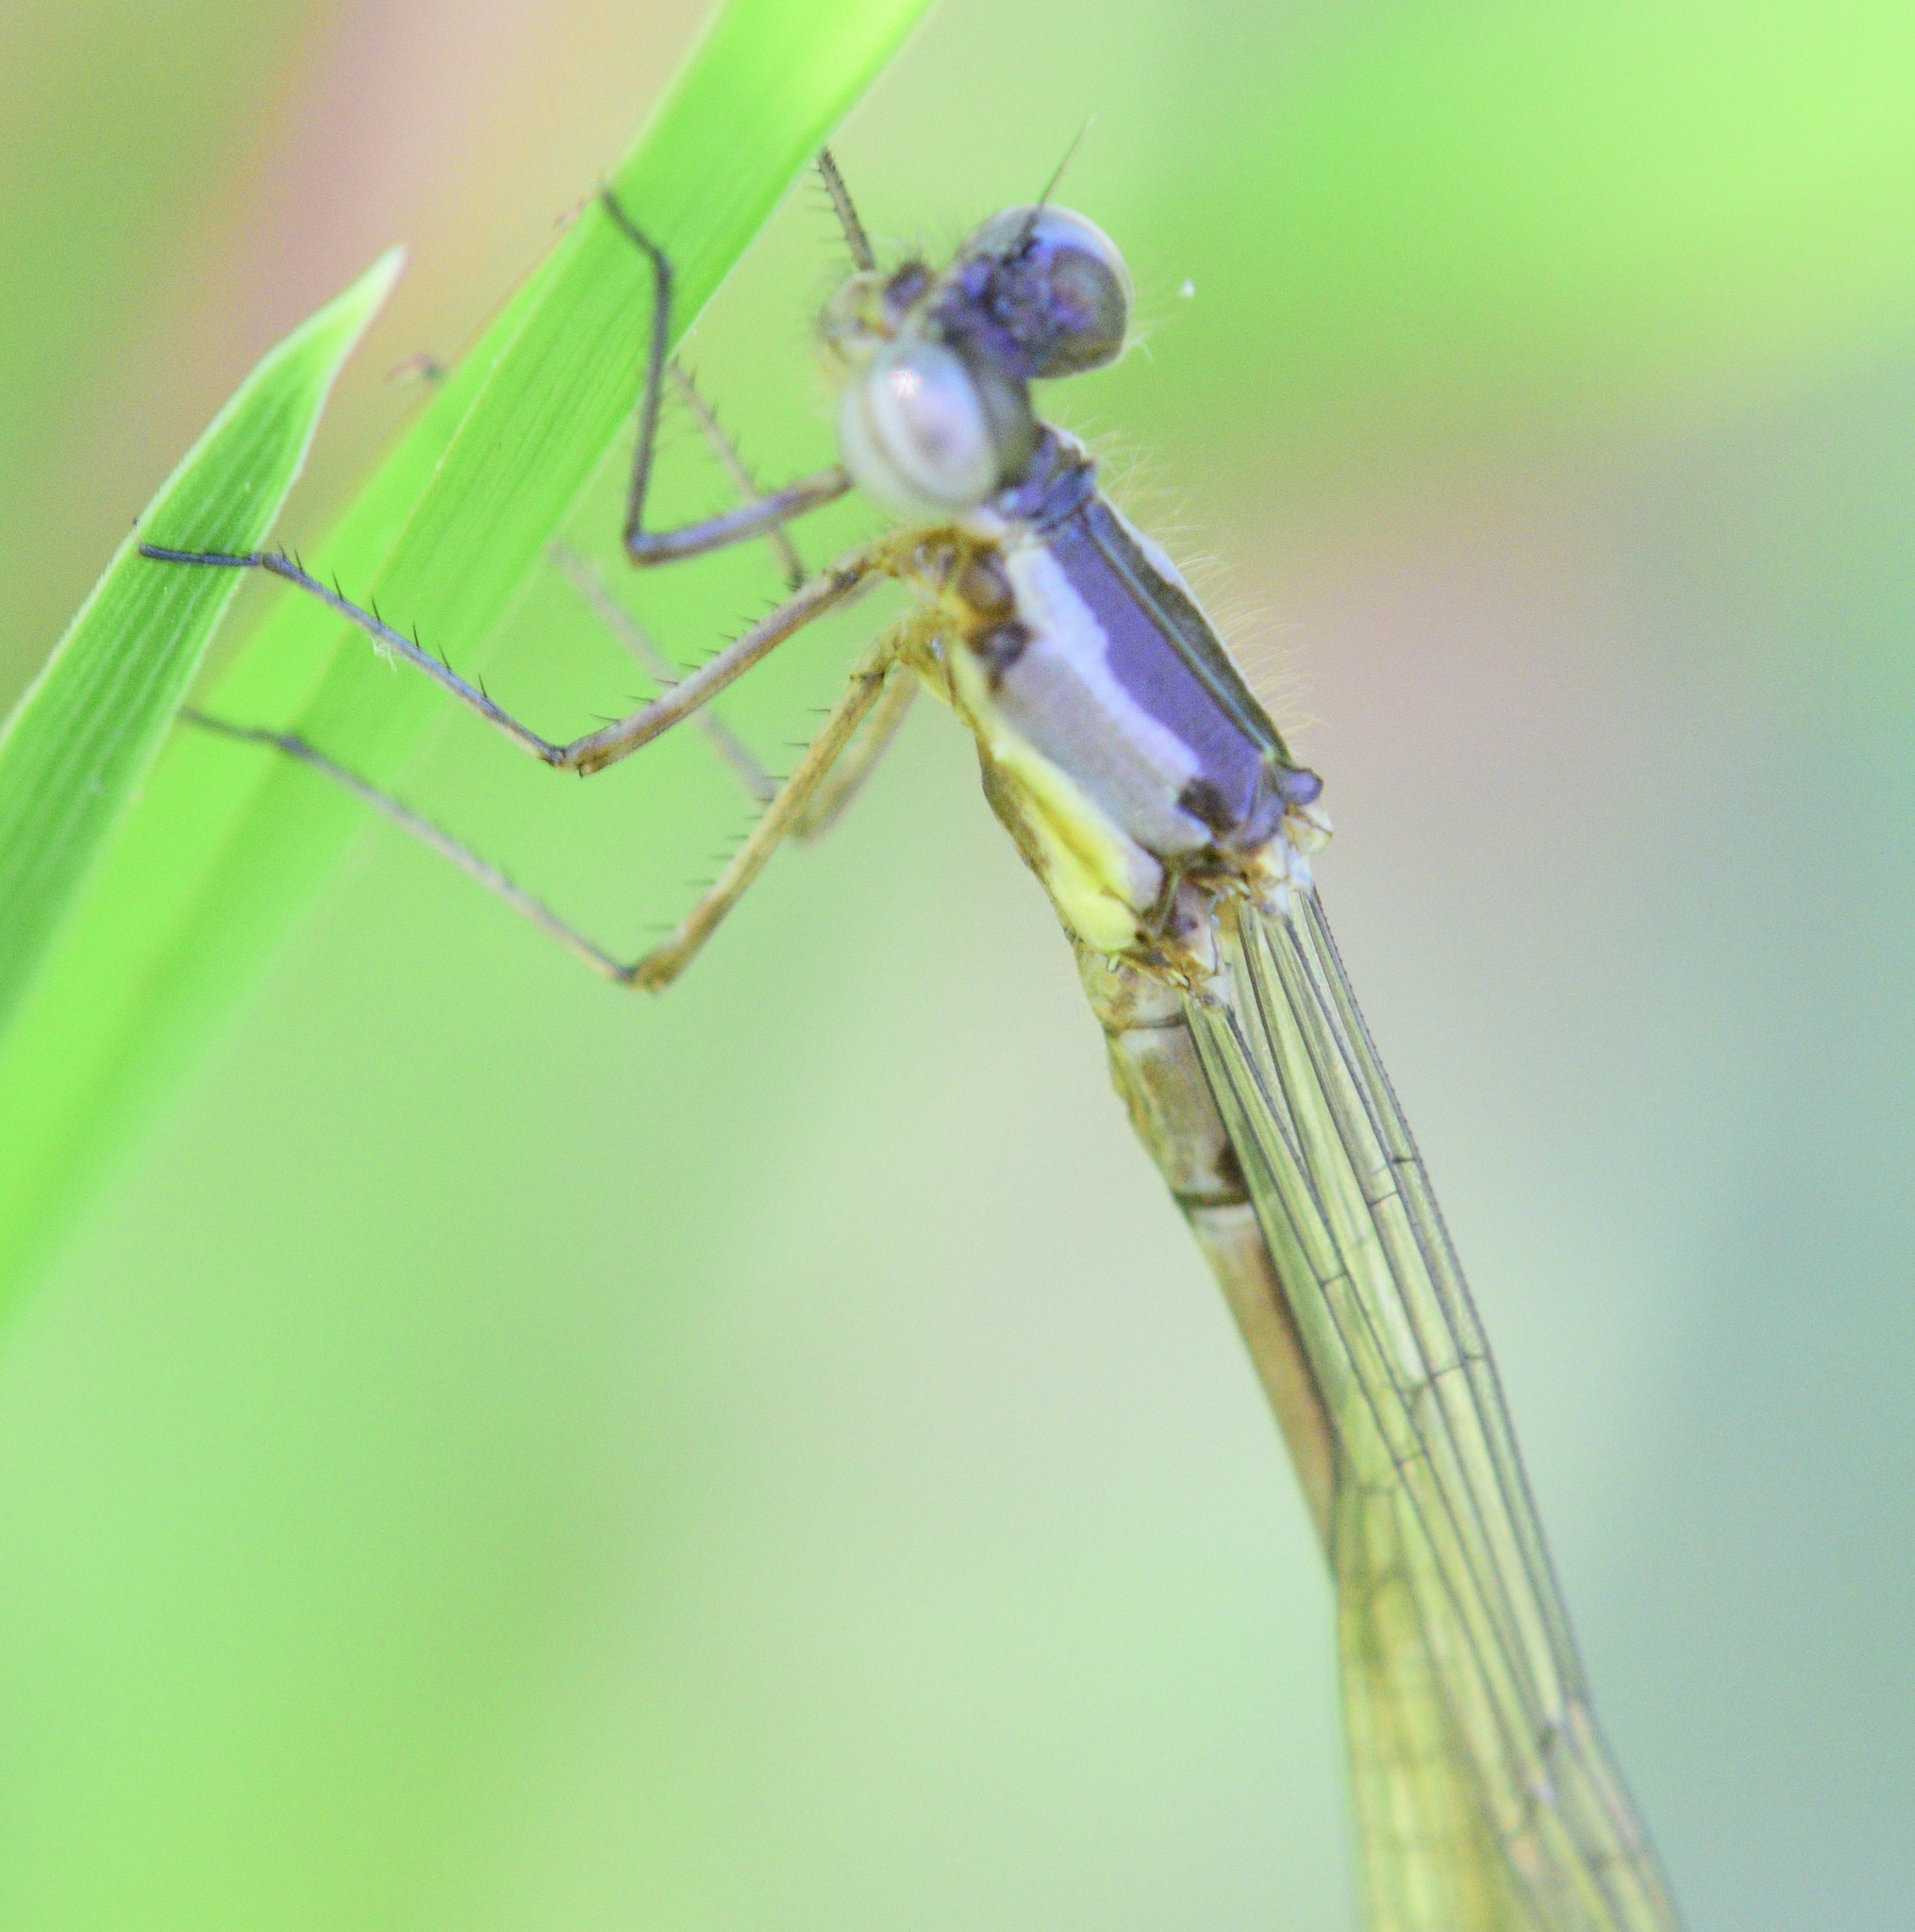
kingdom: Animalia
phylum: Arthropoda
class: Insecta
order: Odonata
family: Coenagrionidae
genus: Chromagrion
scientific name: Chromagrion conditum
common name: Aurora damsel
